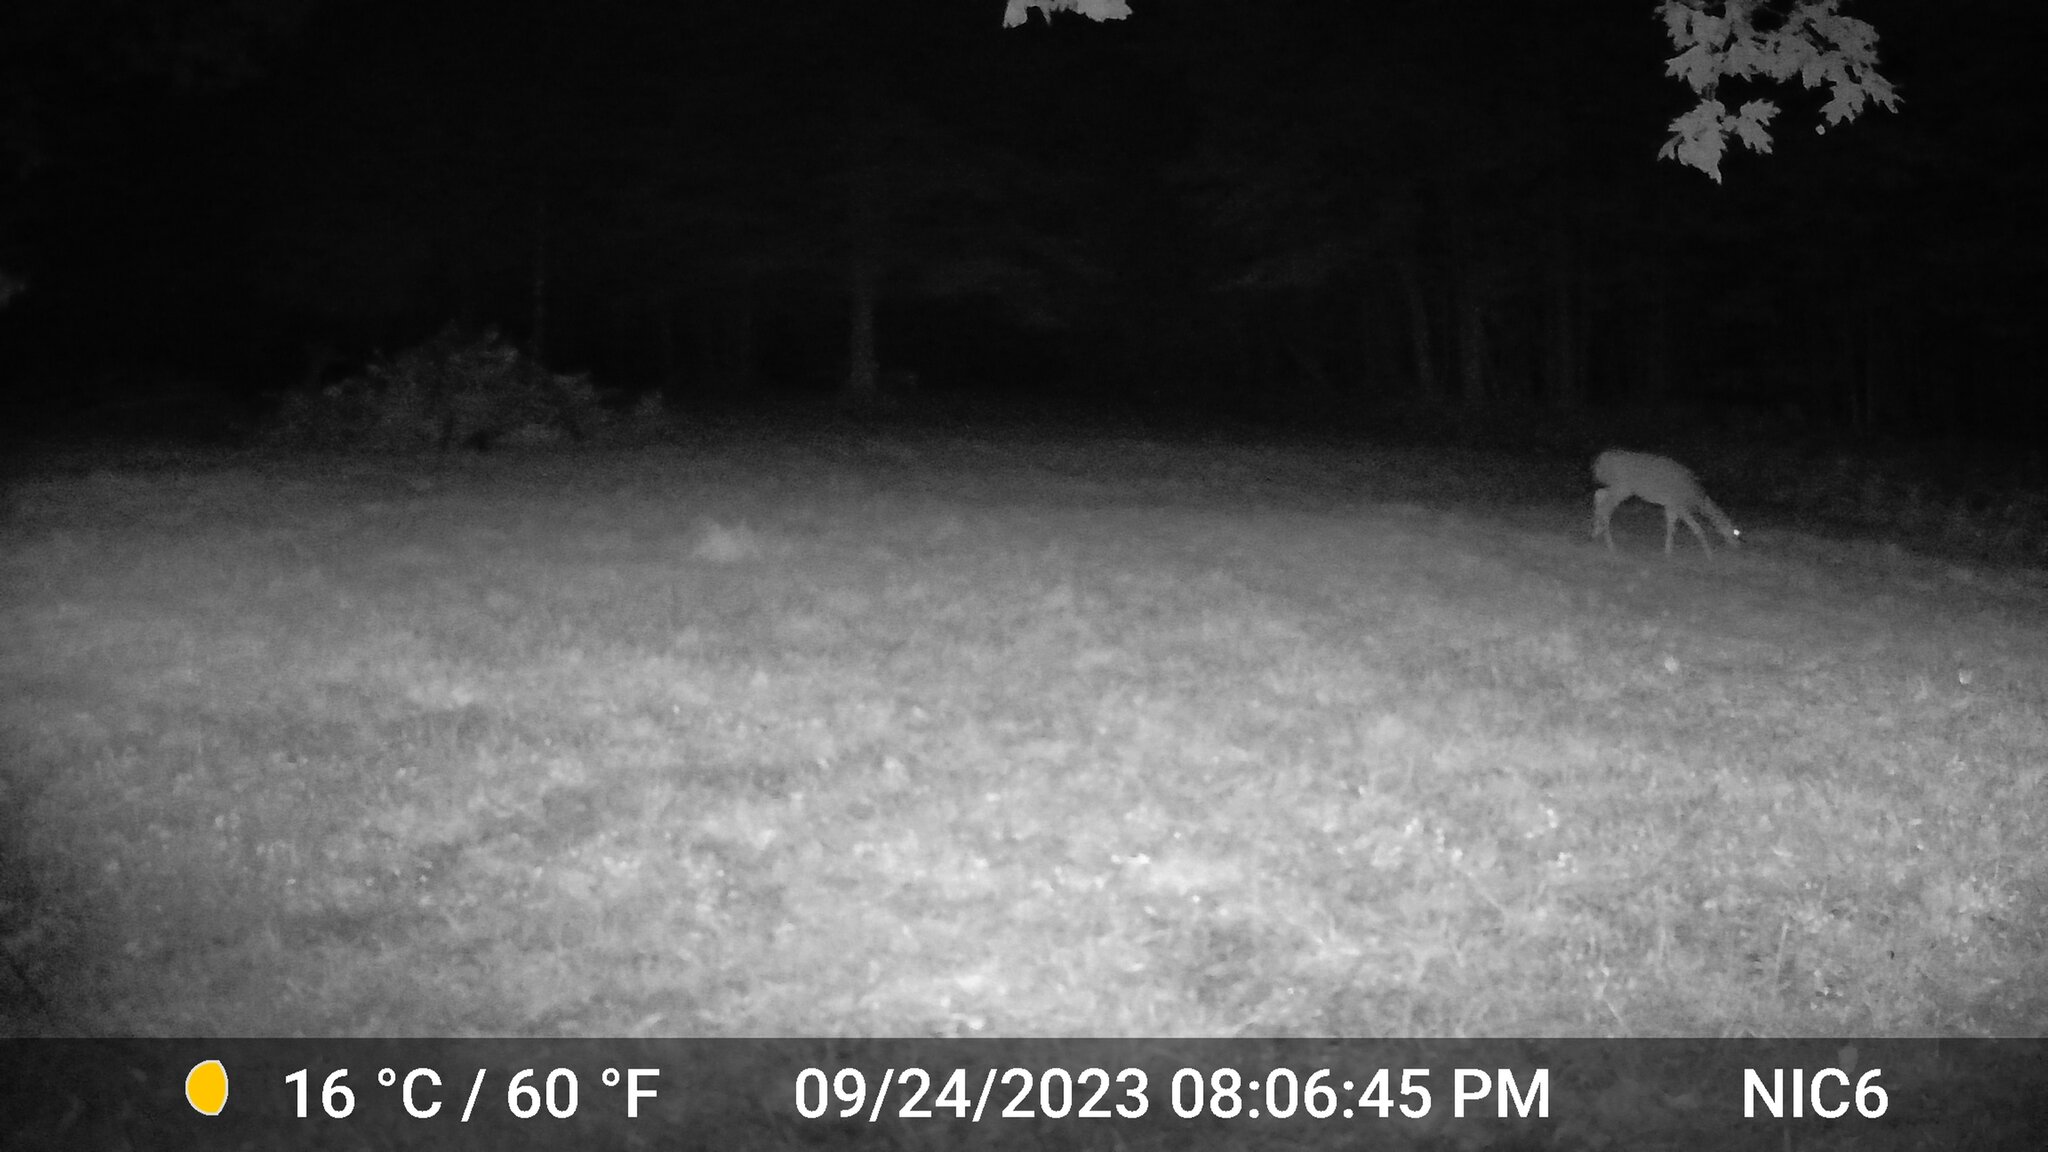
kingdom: Animalia
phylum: Chordata
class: Mammalia
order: Artiodactyla
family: Cervidae
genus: Odocoileus
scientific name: Odocoileus virginianus
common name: White-tailed deer
